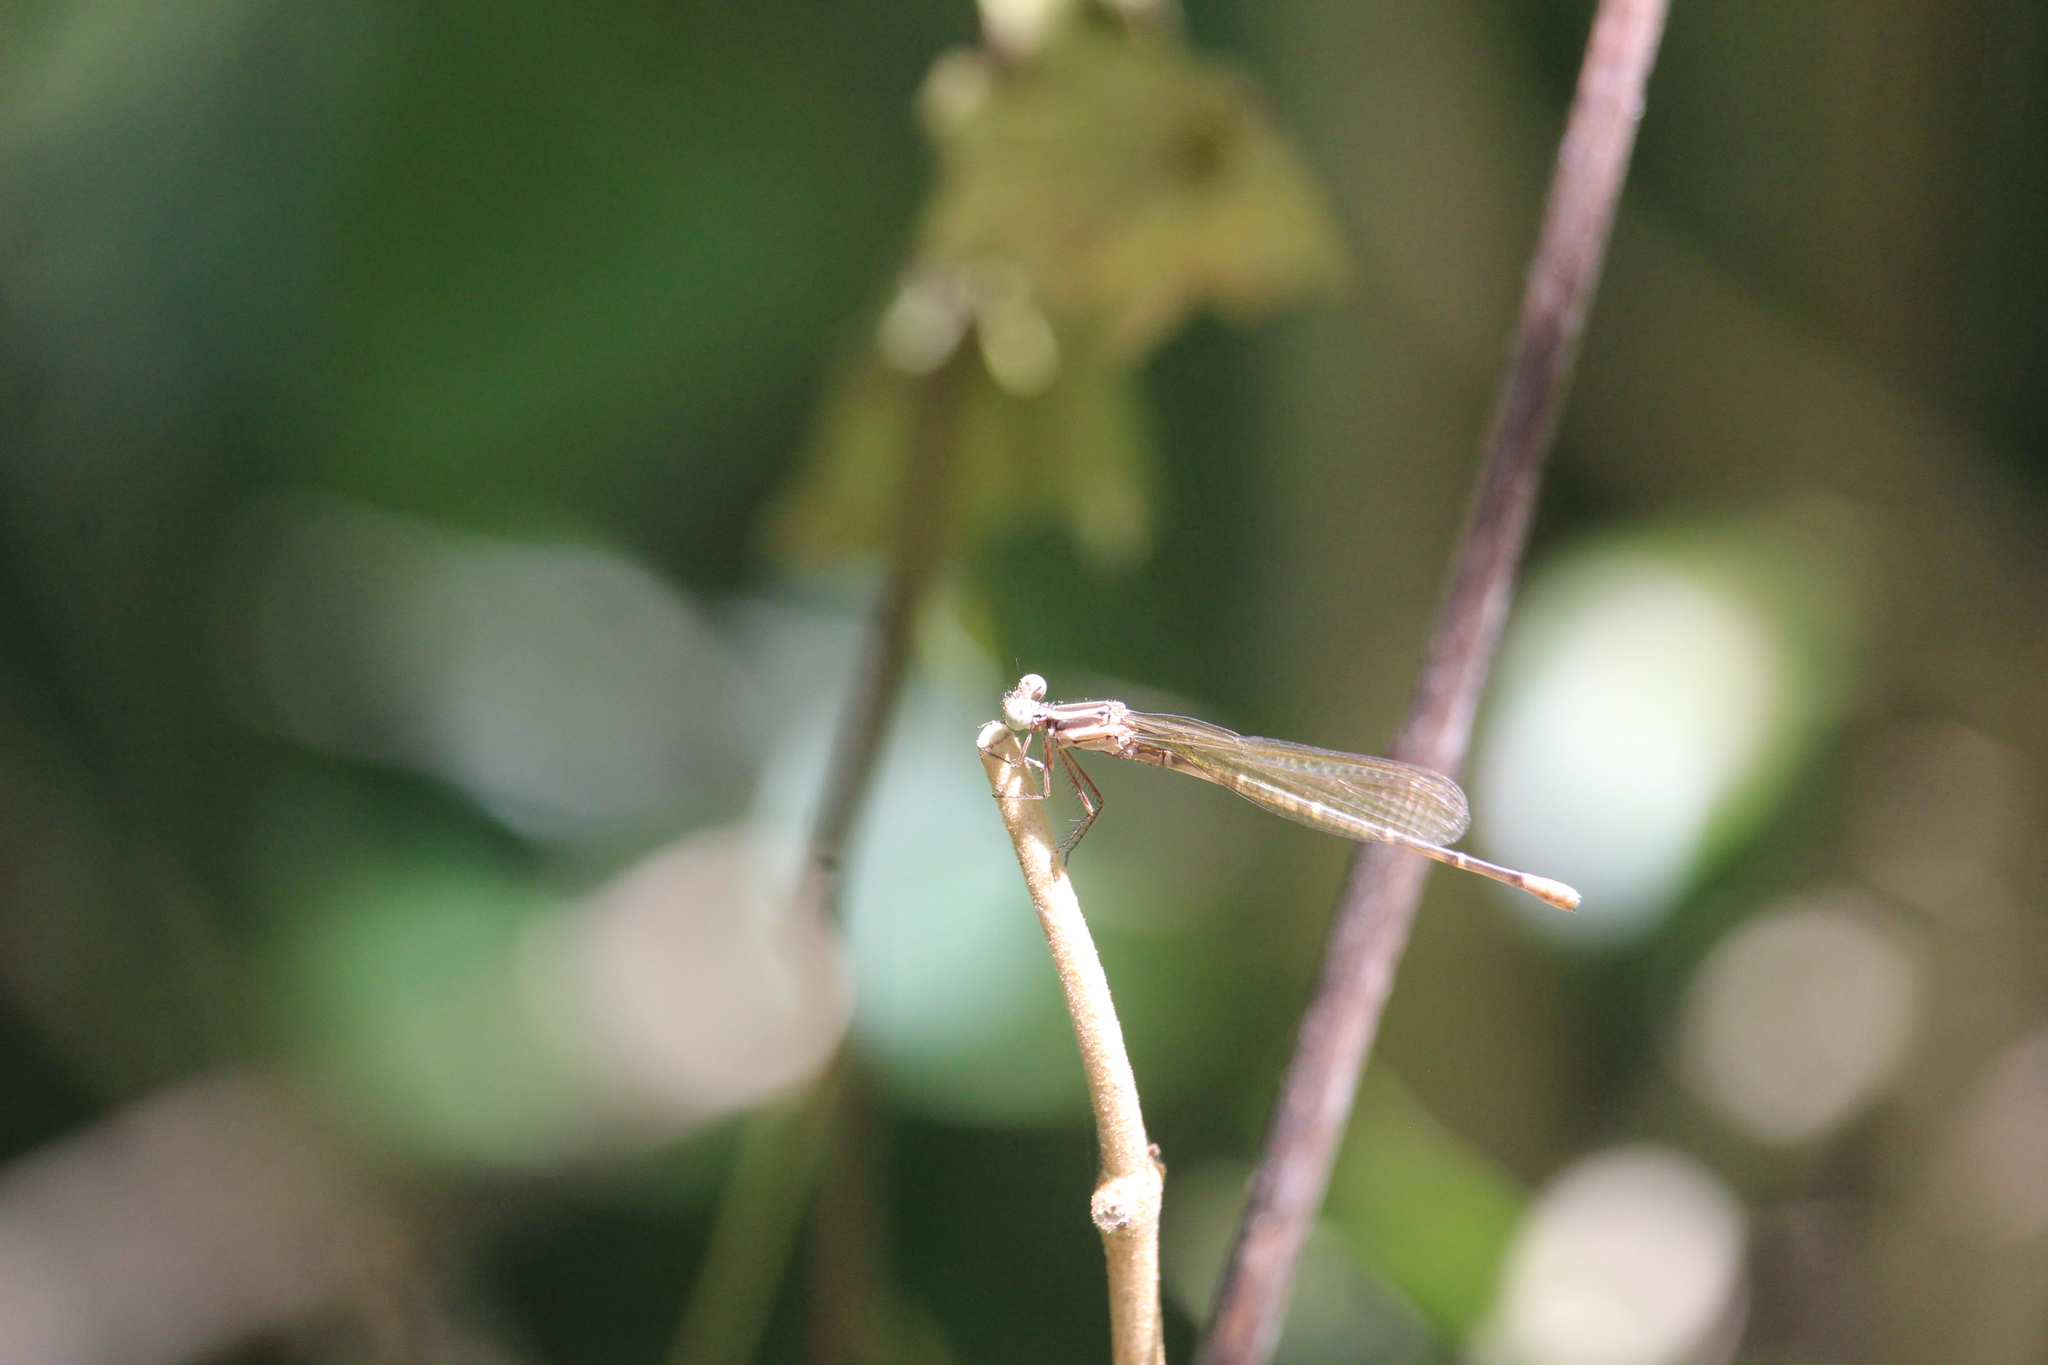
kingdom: Animalia
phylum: Arthropoda
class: Insecta
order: Odonata
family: Coenagrionidae
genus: Argia
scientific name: Argia gaumeri
